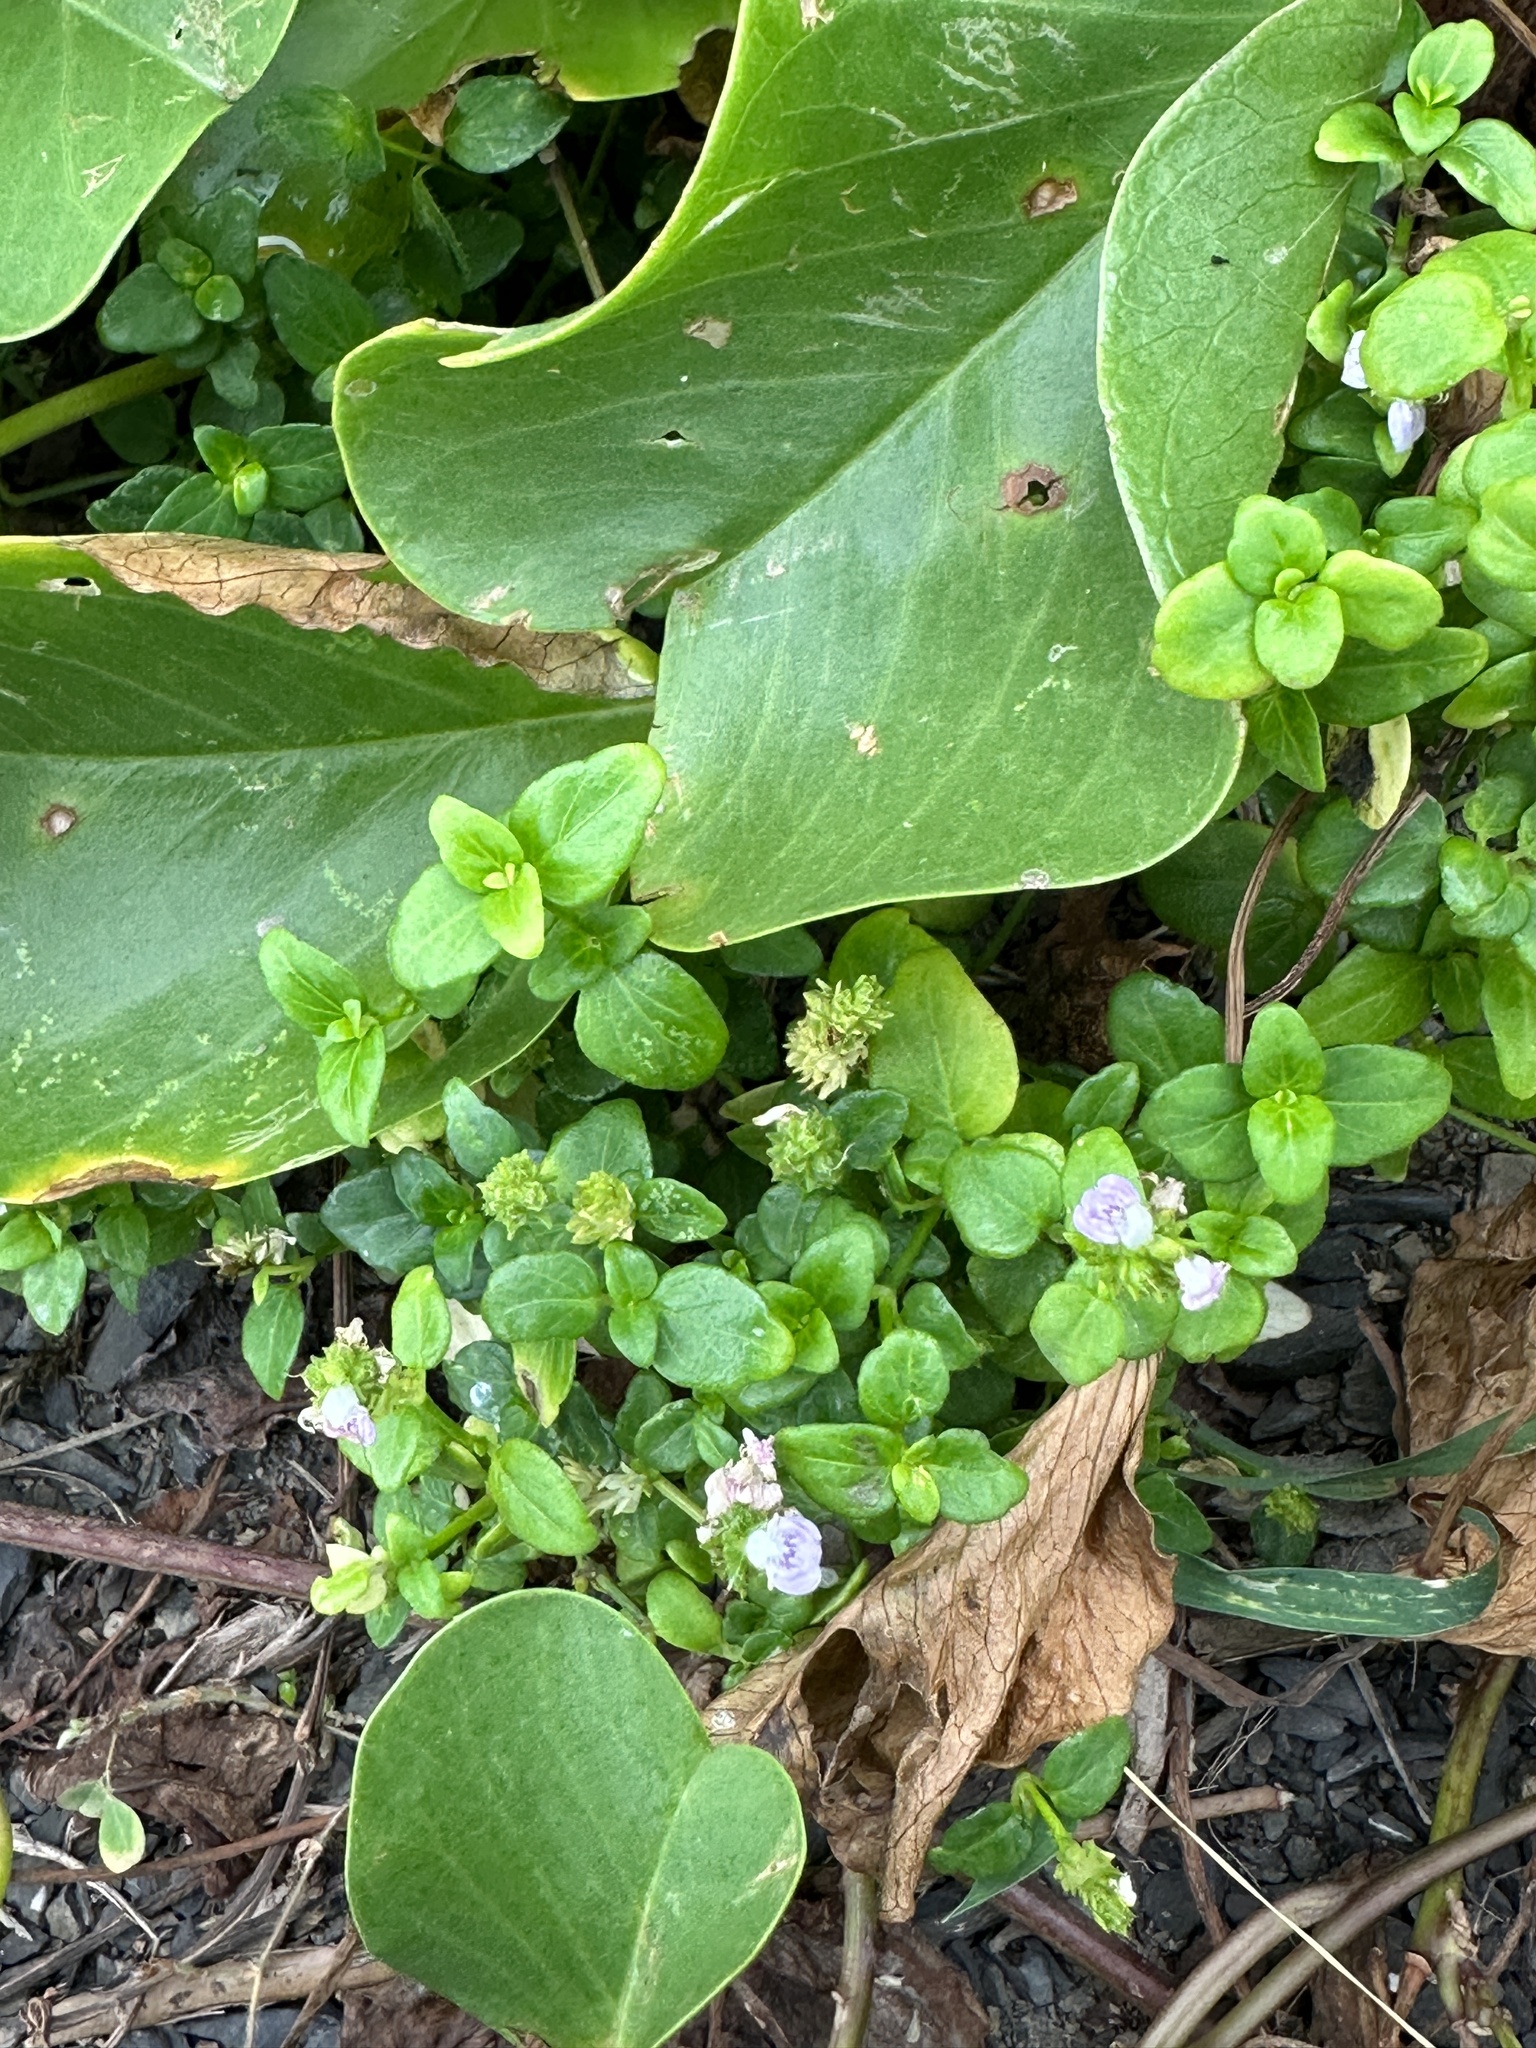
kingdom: Plantae
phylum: Tracheophyta
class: Magnoliopsida
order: Lamiales
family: Acanthaceae
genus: Rostellularia
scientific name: Rostellularia hayatae
